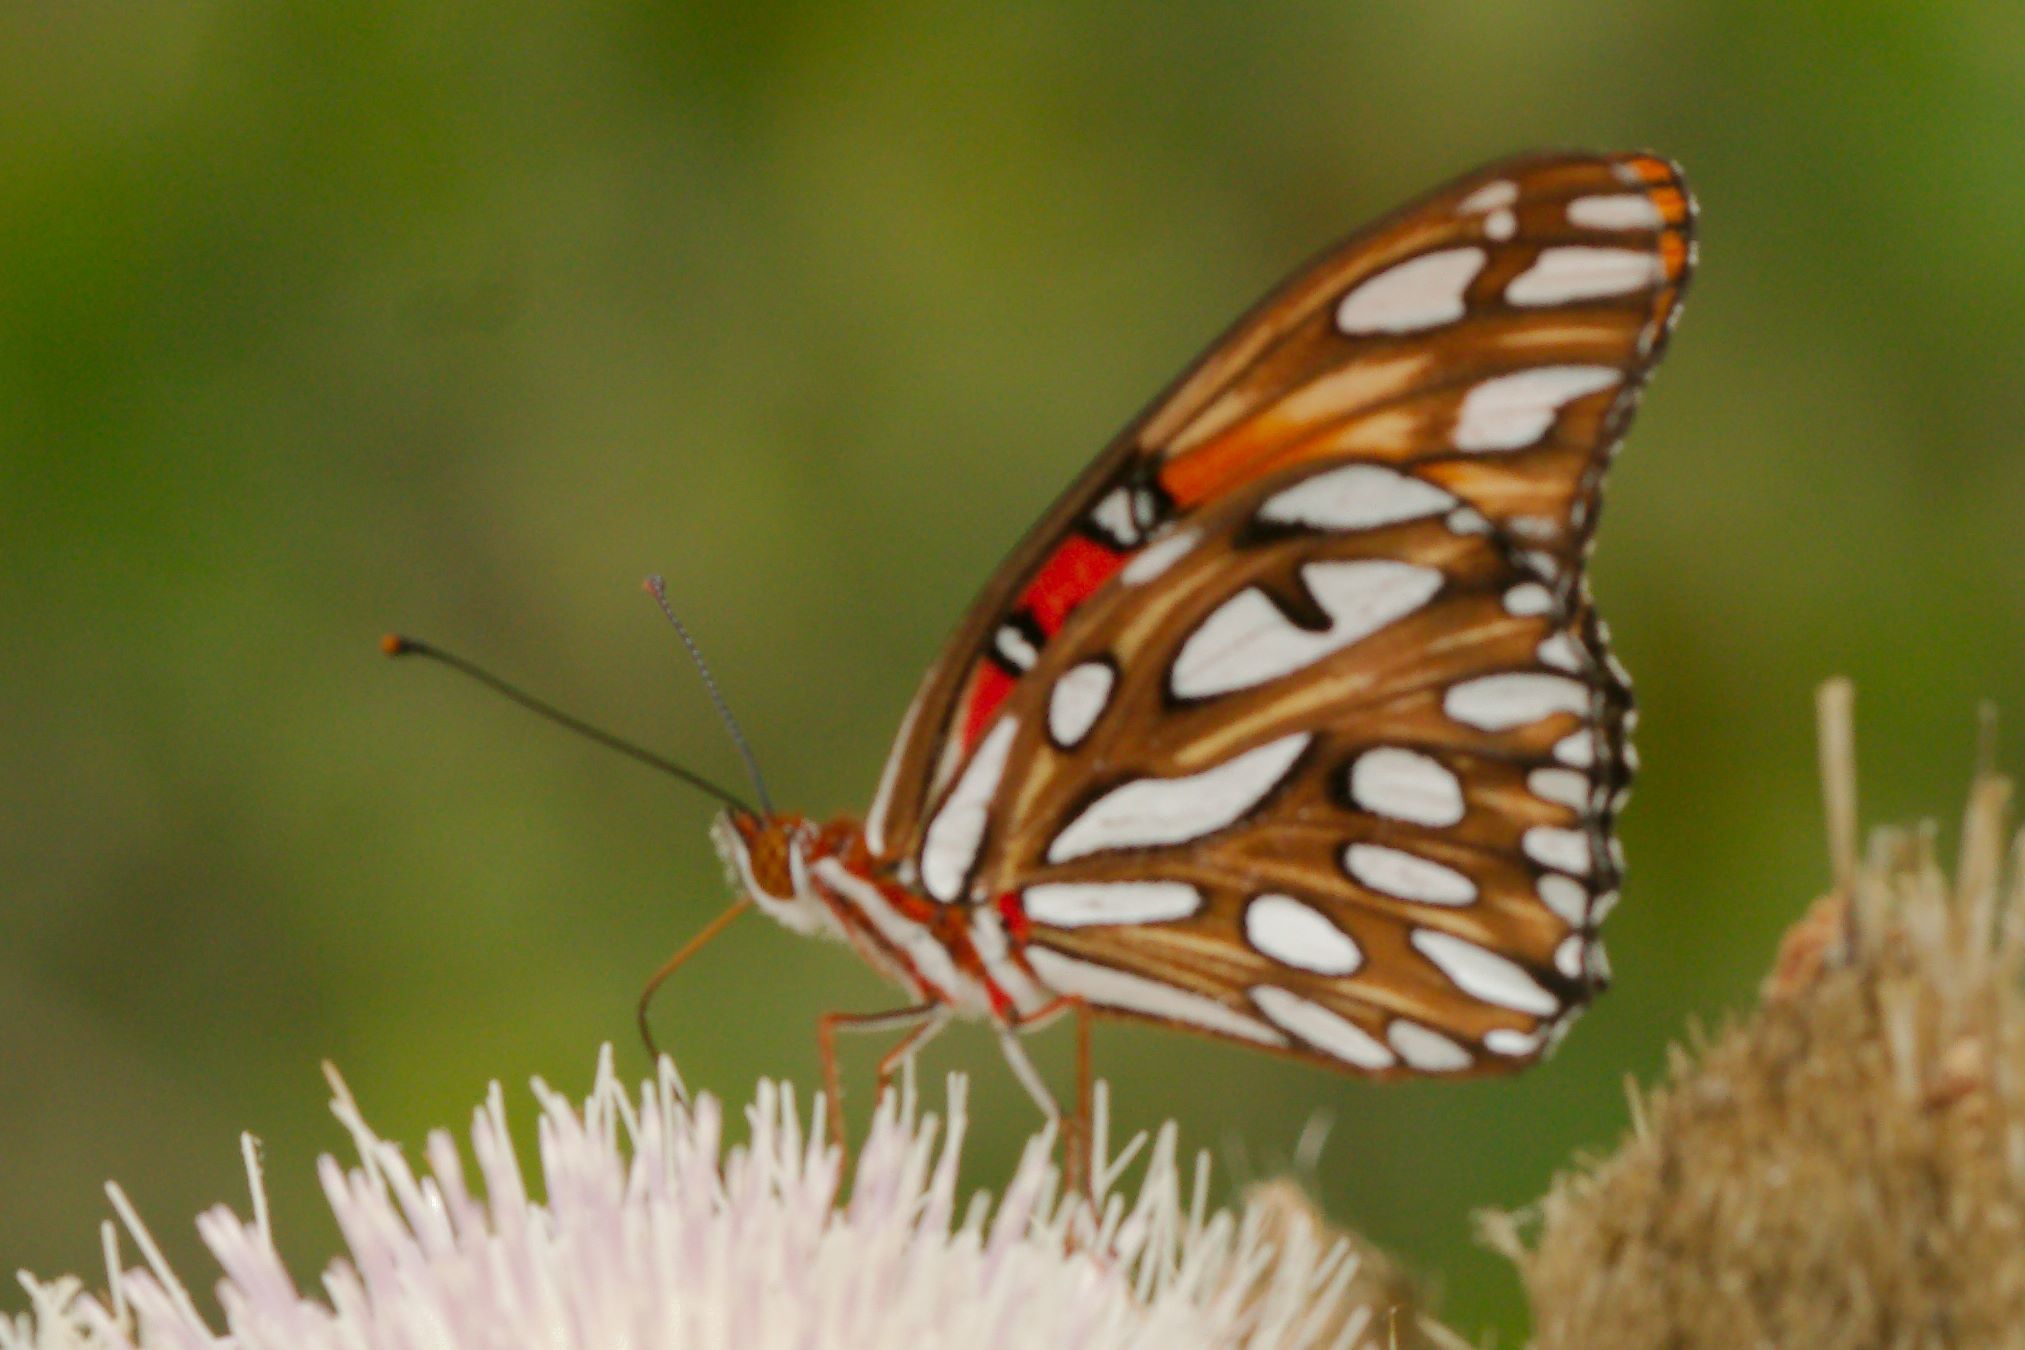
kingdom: Animalia
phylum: Arthropoda
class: Insecta
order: Lepidoptera
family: Nymphalidae
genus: Dione
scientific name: Dione vanillae
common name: Gulf fritillary
